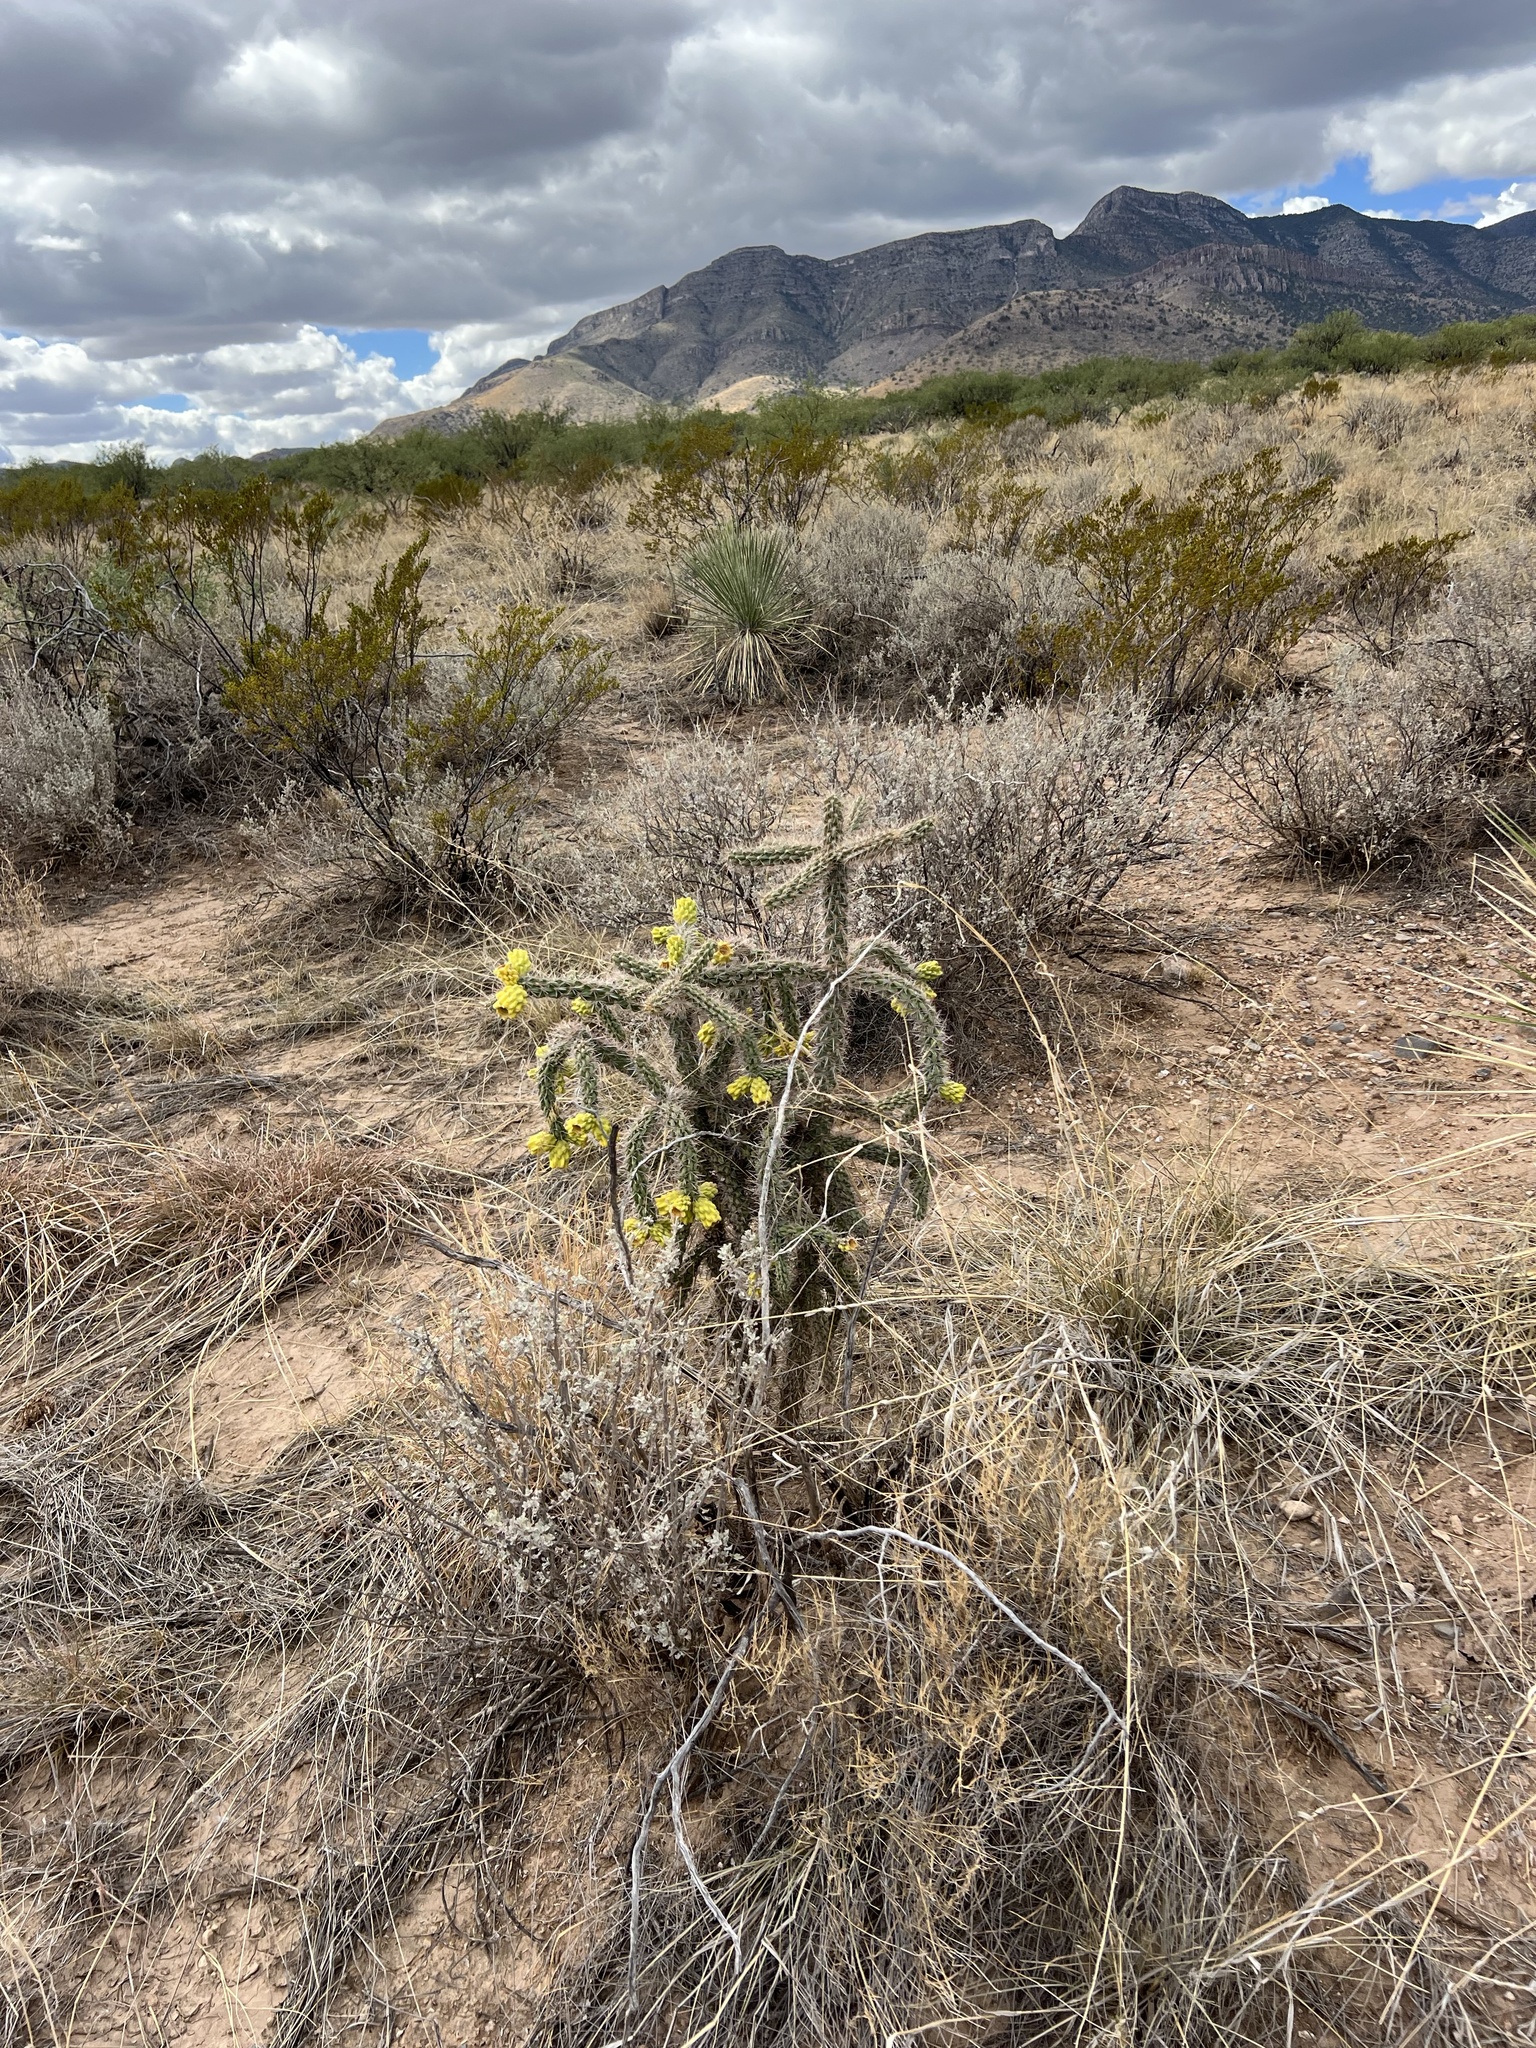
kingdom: Plantae
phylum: Tracheophyta
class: Magnoliopsida
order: Caryophyllales
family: Cactaceae
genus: Cylindropuntia
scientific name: Cylindropuntia imbricata
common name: Candelabrum cactus
